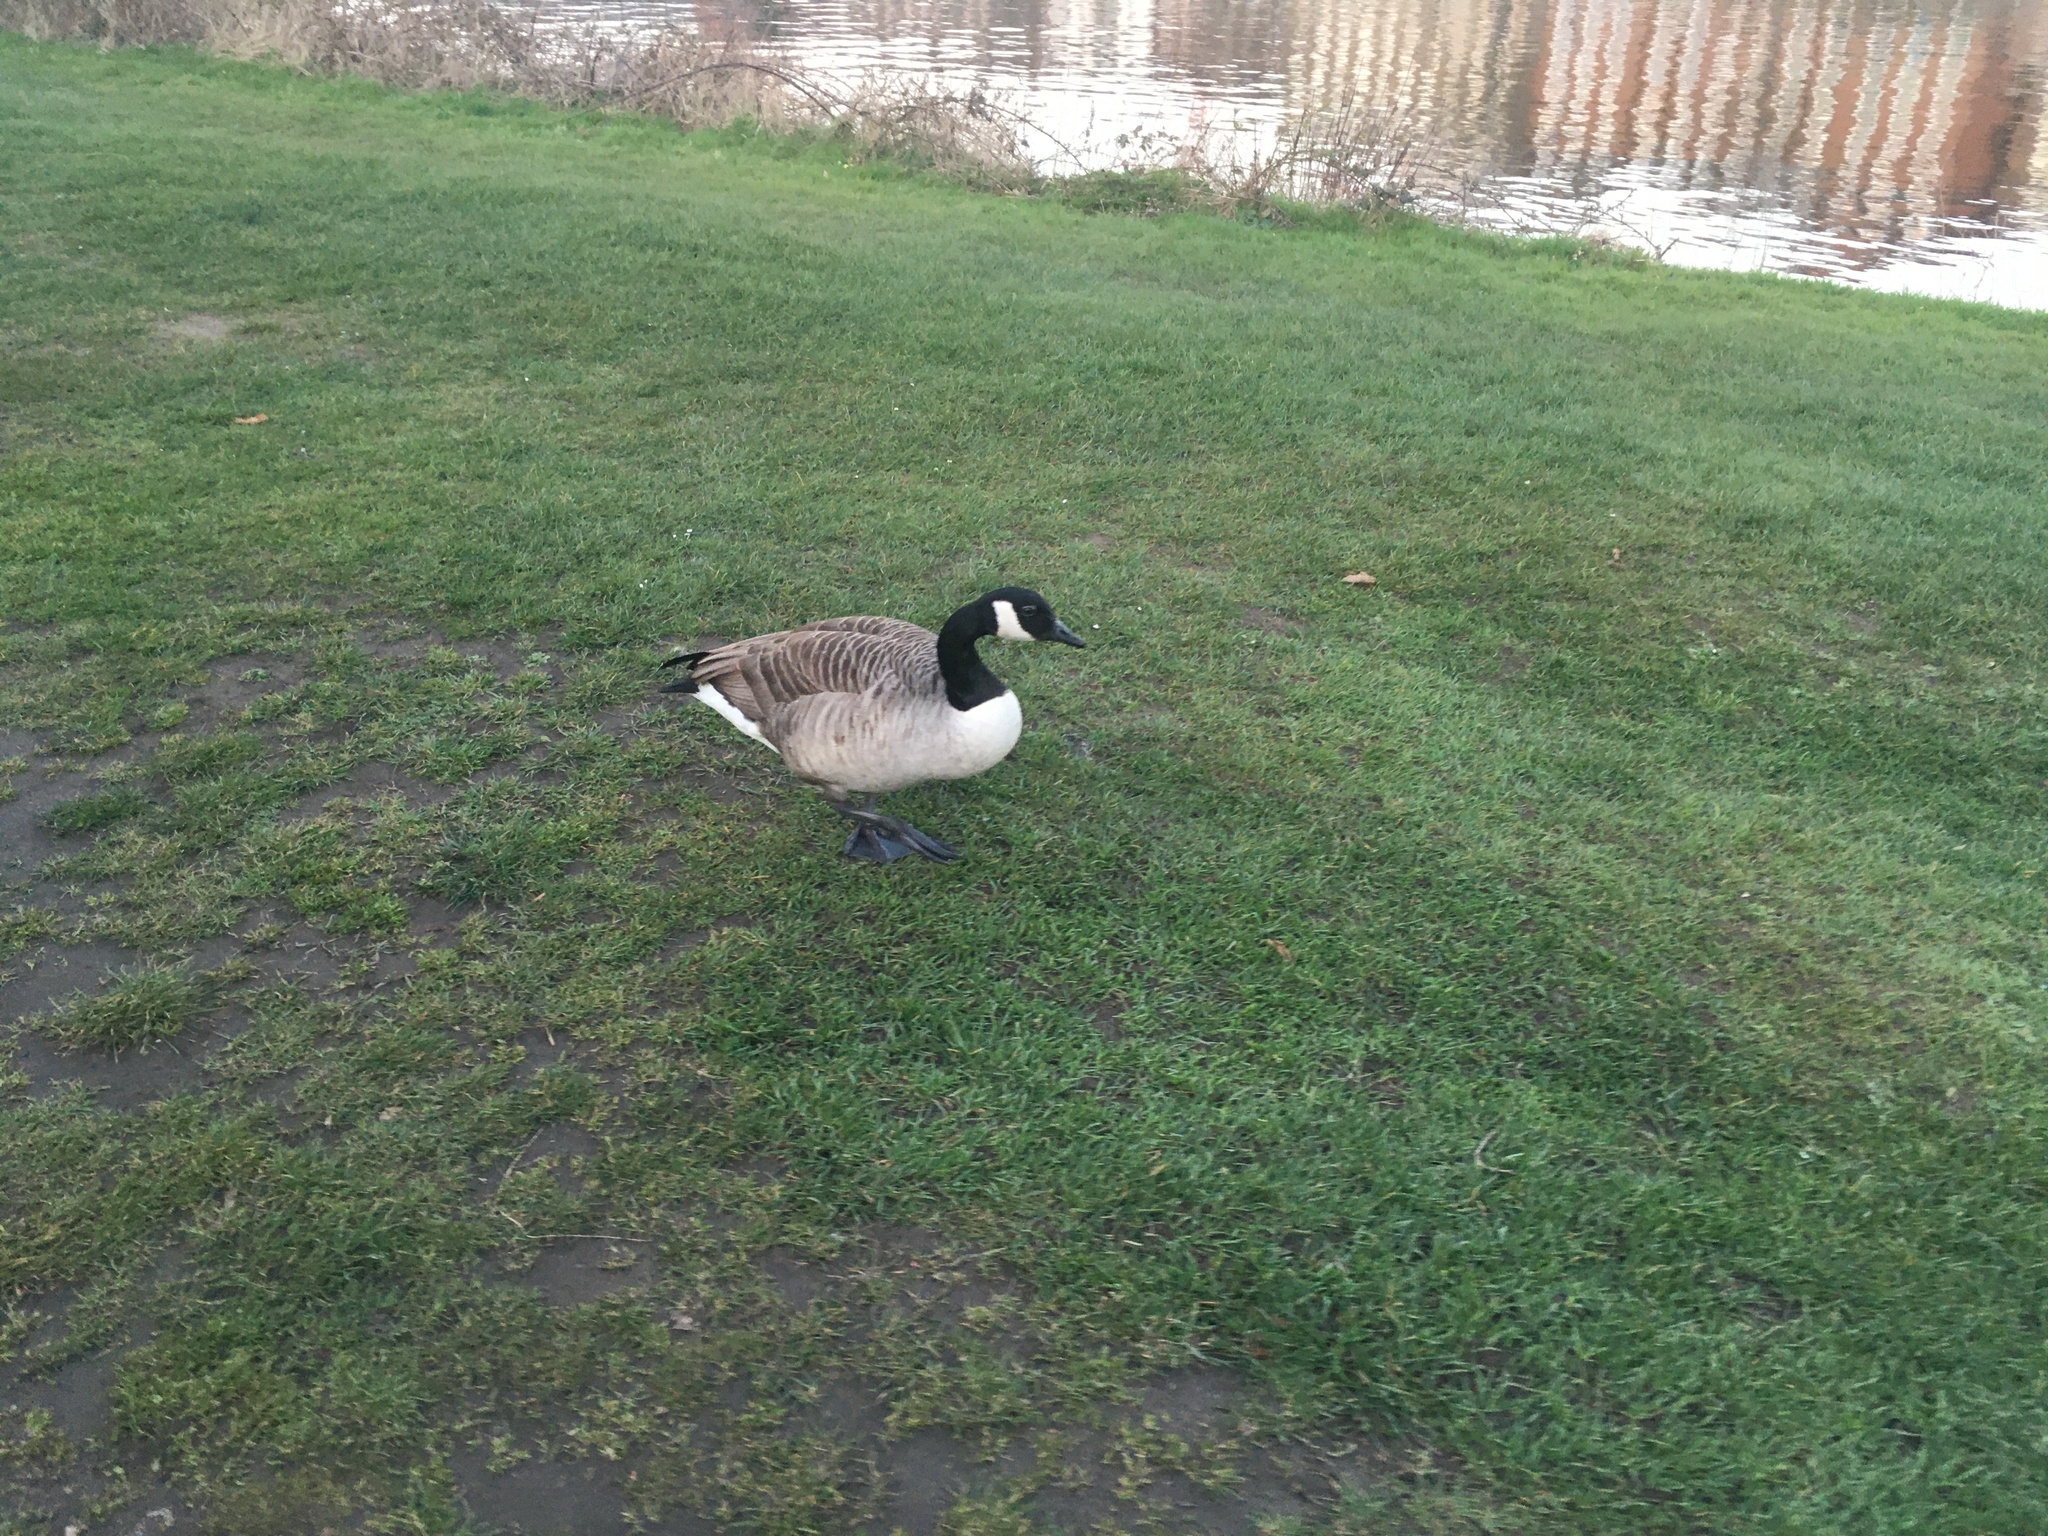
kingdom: Animalia
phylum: Chordata
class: Aves
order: Anseriformes
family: Anatidae
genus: Branta
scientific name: Branta canadensis
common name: Canada goose
